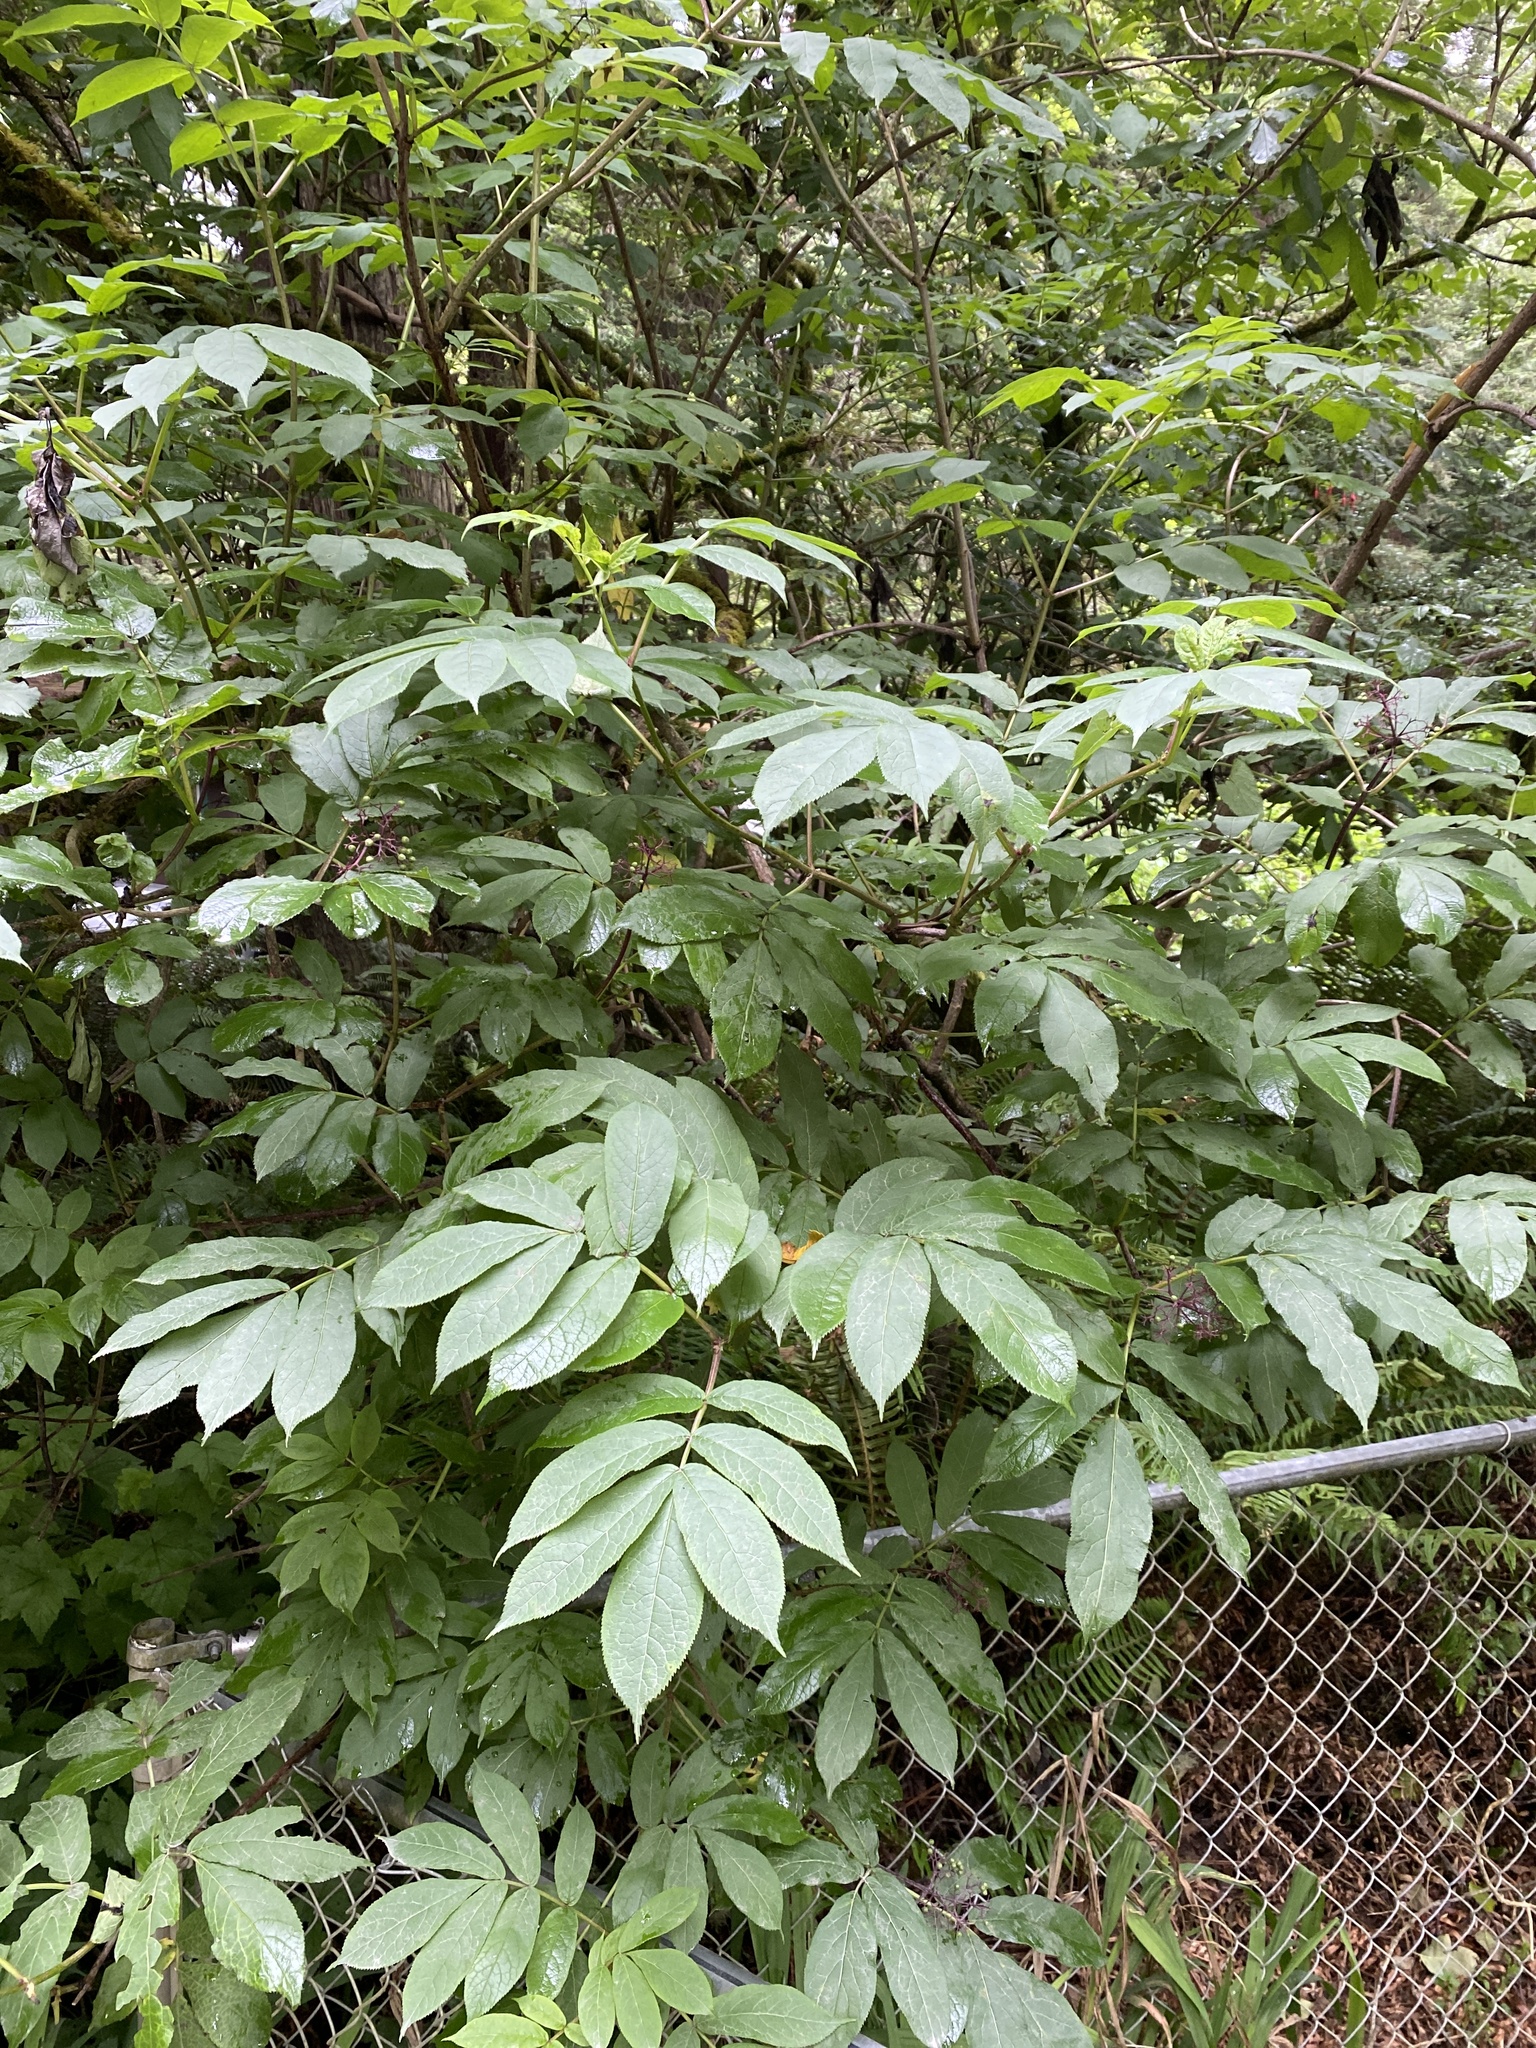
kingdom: Plantae
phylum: Tracheophyta
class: Magnoliopsida
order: Dipsacales
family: Viburnaceae
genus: Sambucus
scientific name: Sambucus racemosa
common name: Red-berried elder
